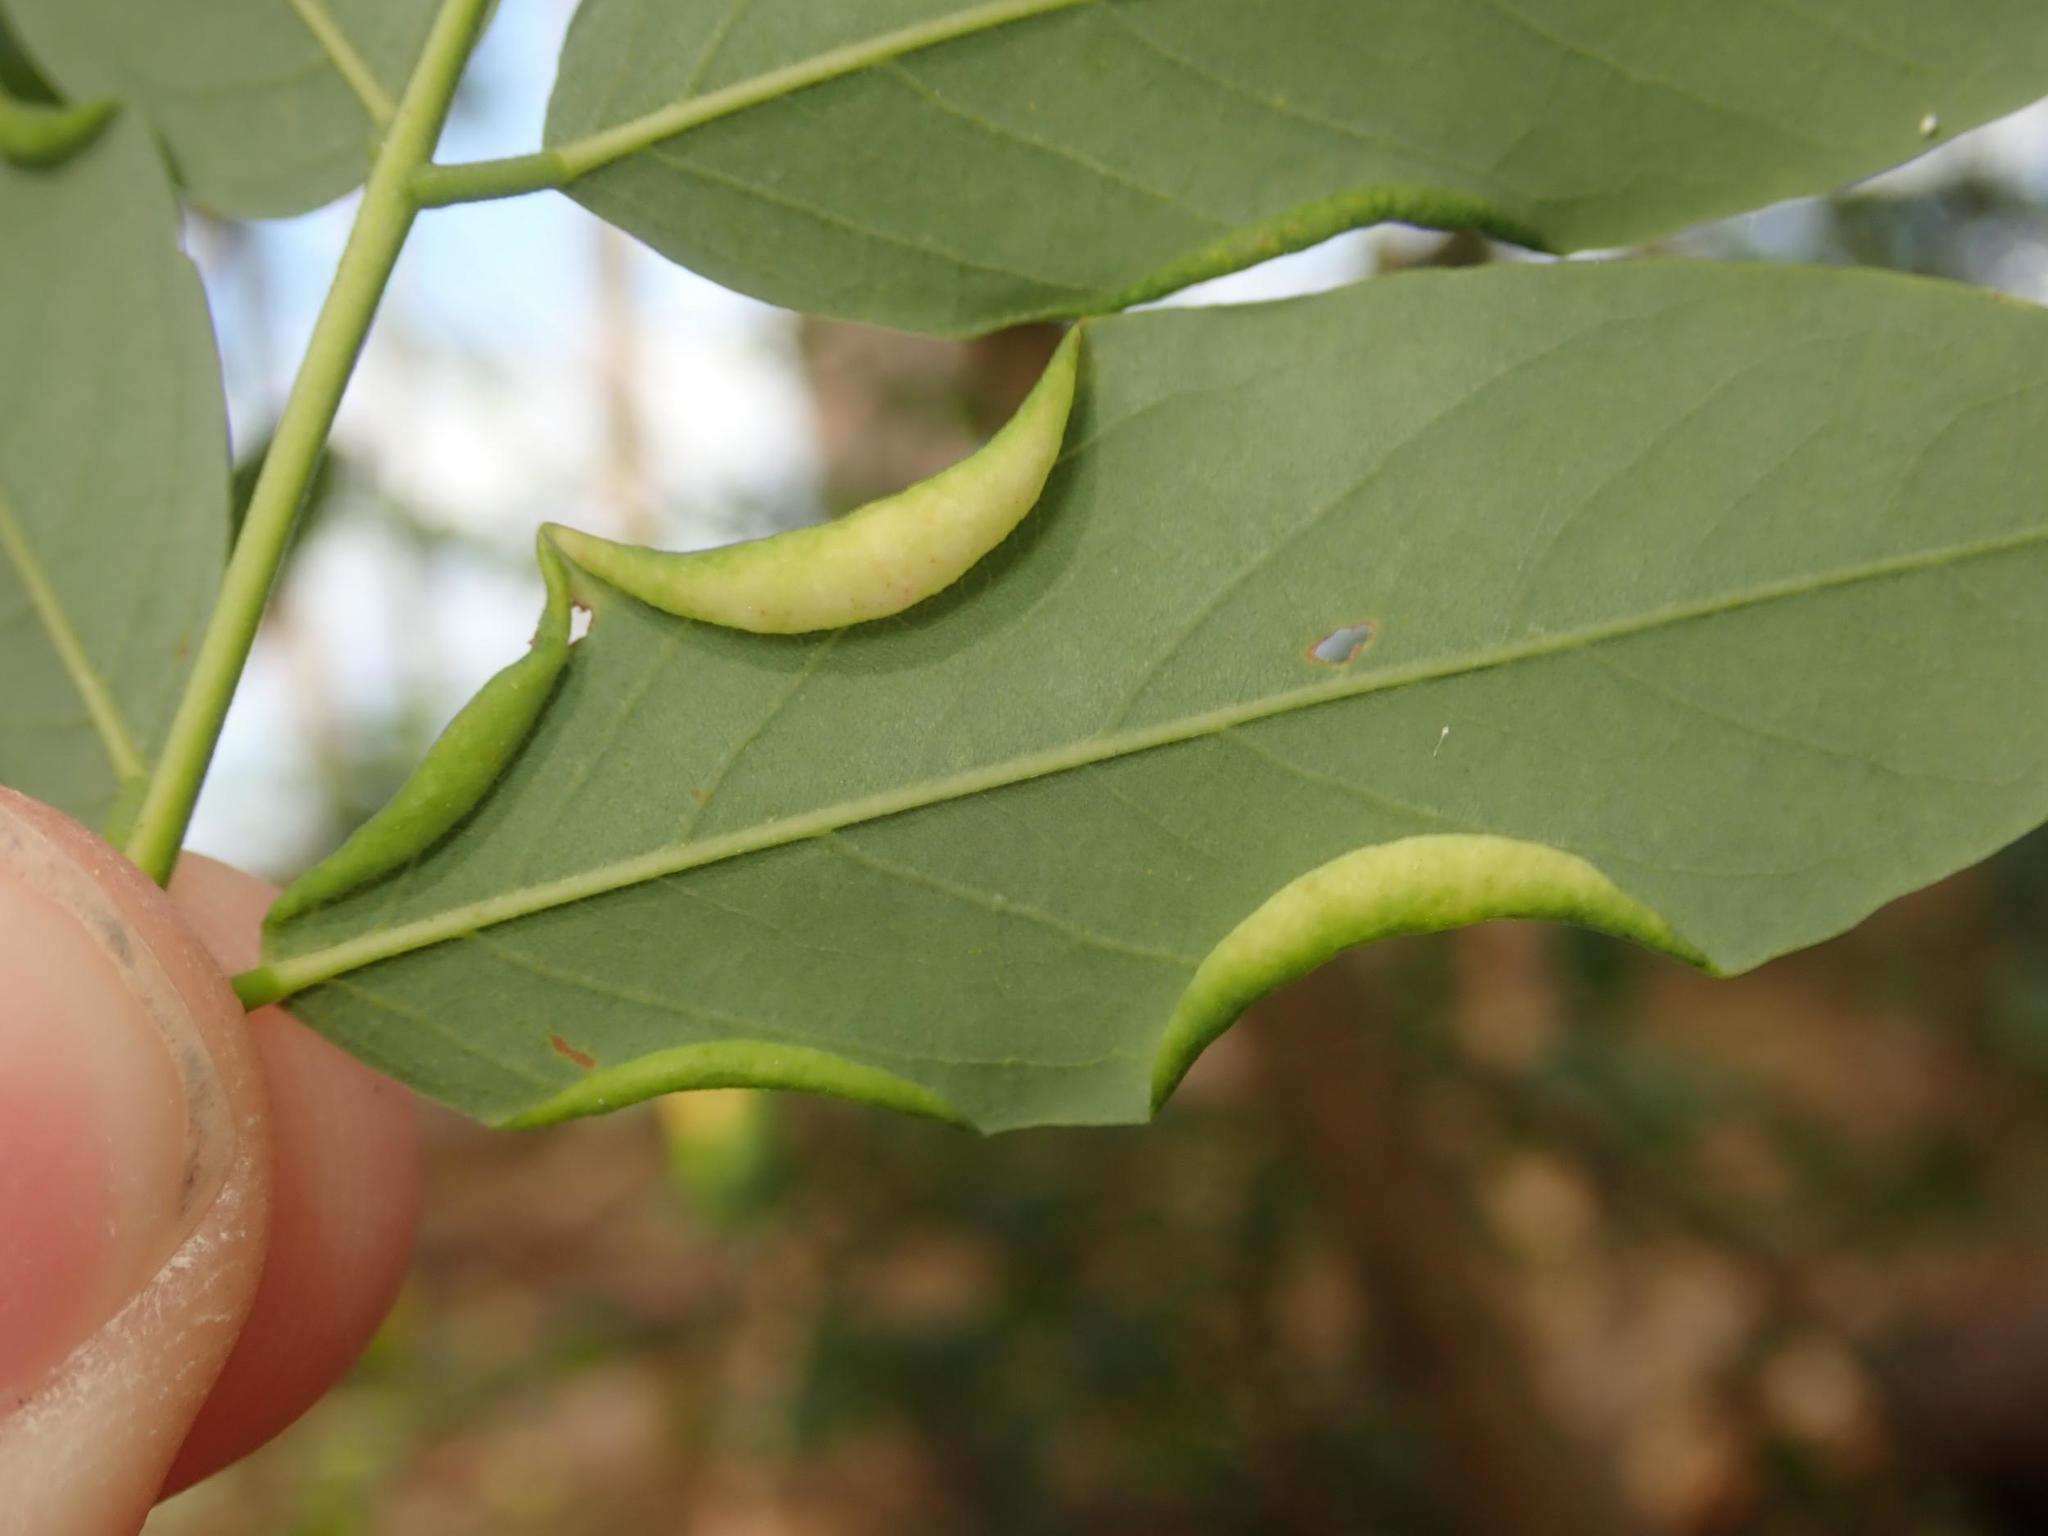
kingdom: Animalia
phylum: Arthropoda
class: Insecta
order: Diptera
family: Cecidomyiidae
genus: Obolodiplosis
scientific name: Obolodiplosis robiniae
